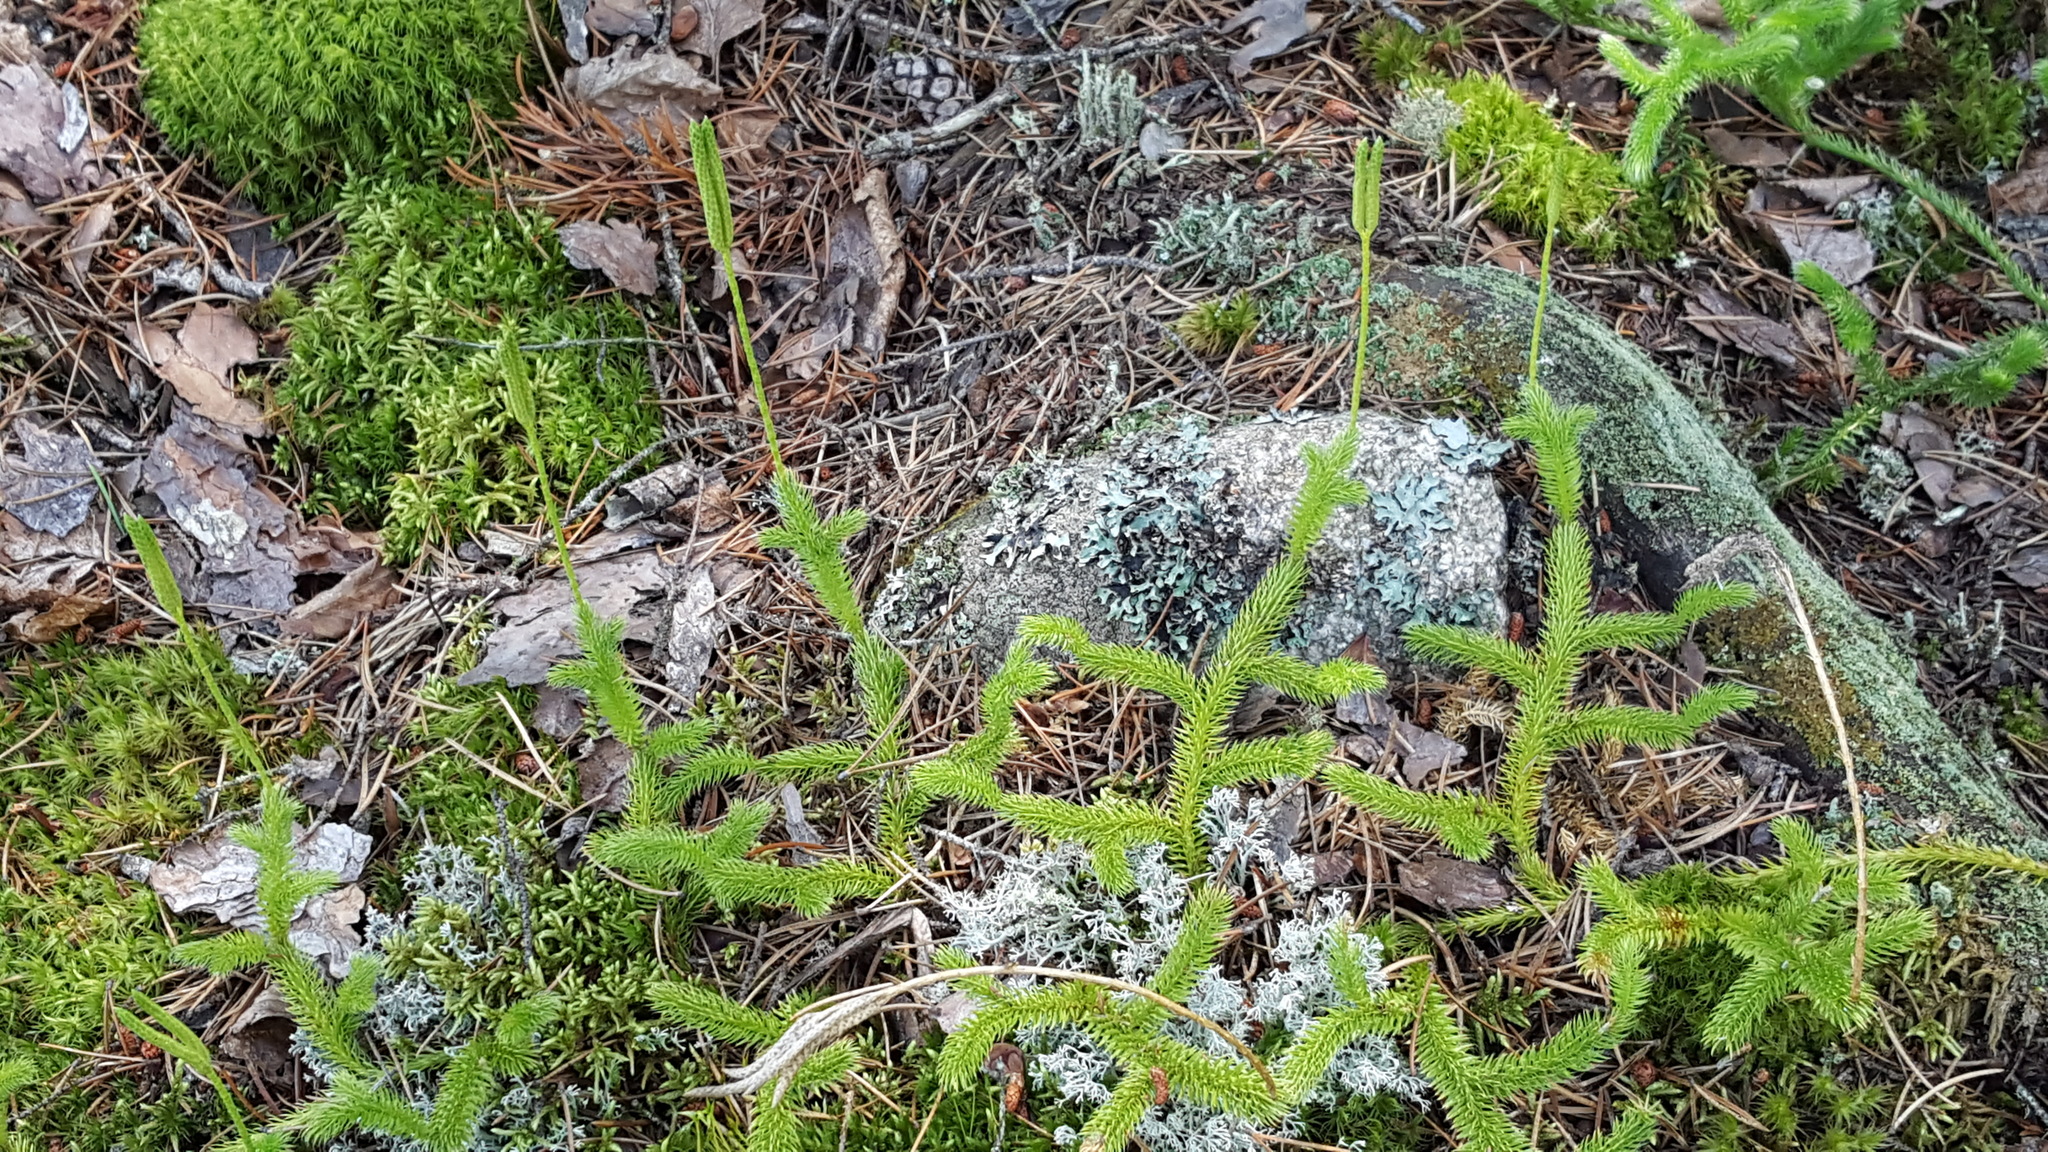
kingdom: Plantae
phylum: Tracheophyta
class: Lycopodiopsida
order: Lycopodiales
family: Lycopodiaceae
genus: Lycopodium
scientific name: Lycopodium clavatum
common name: Stag's-horn clubmoss
